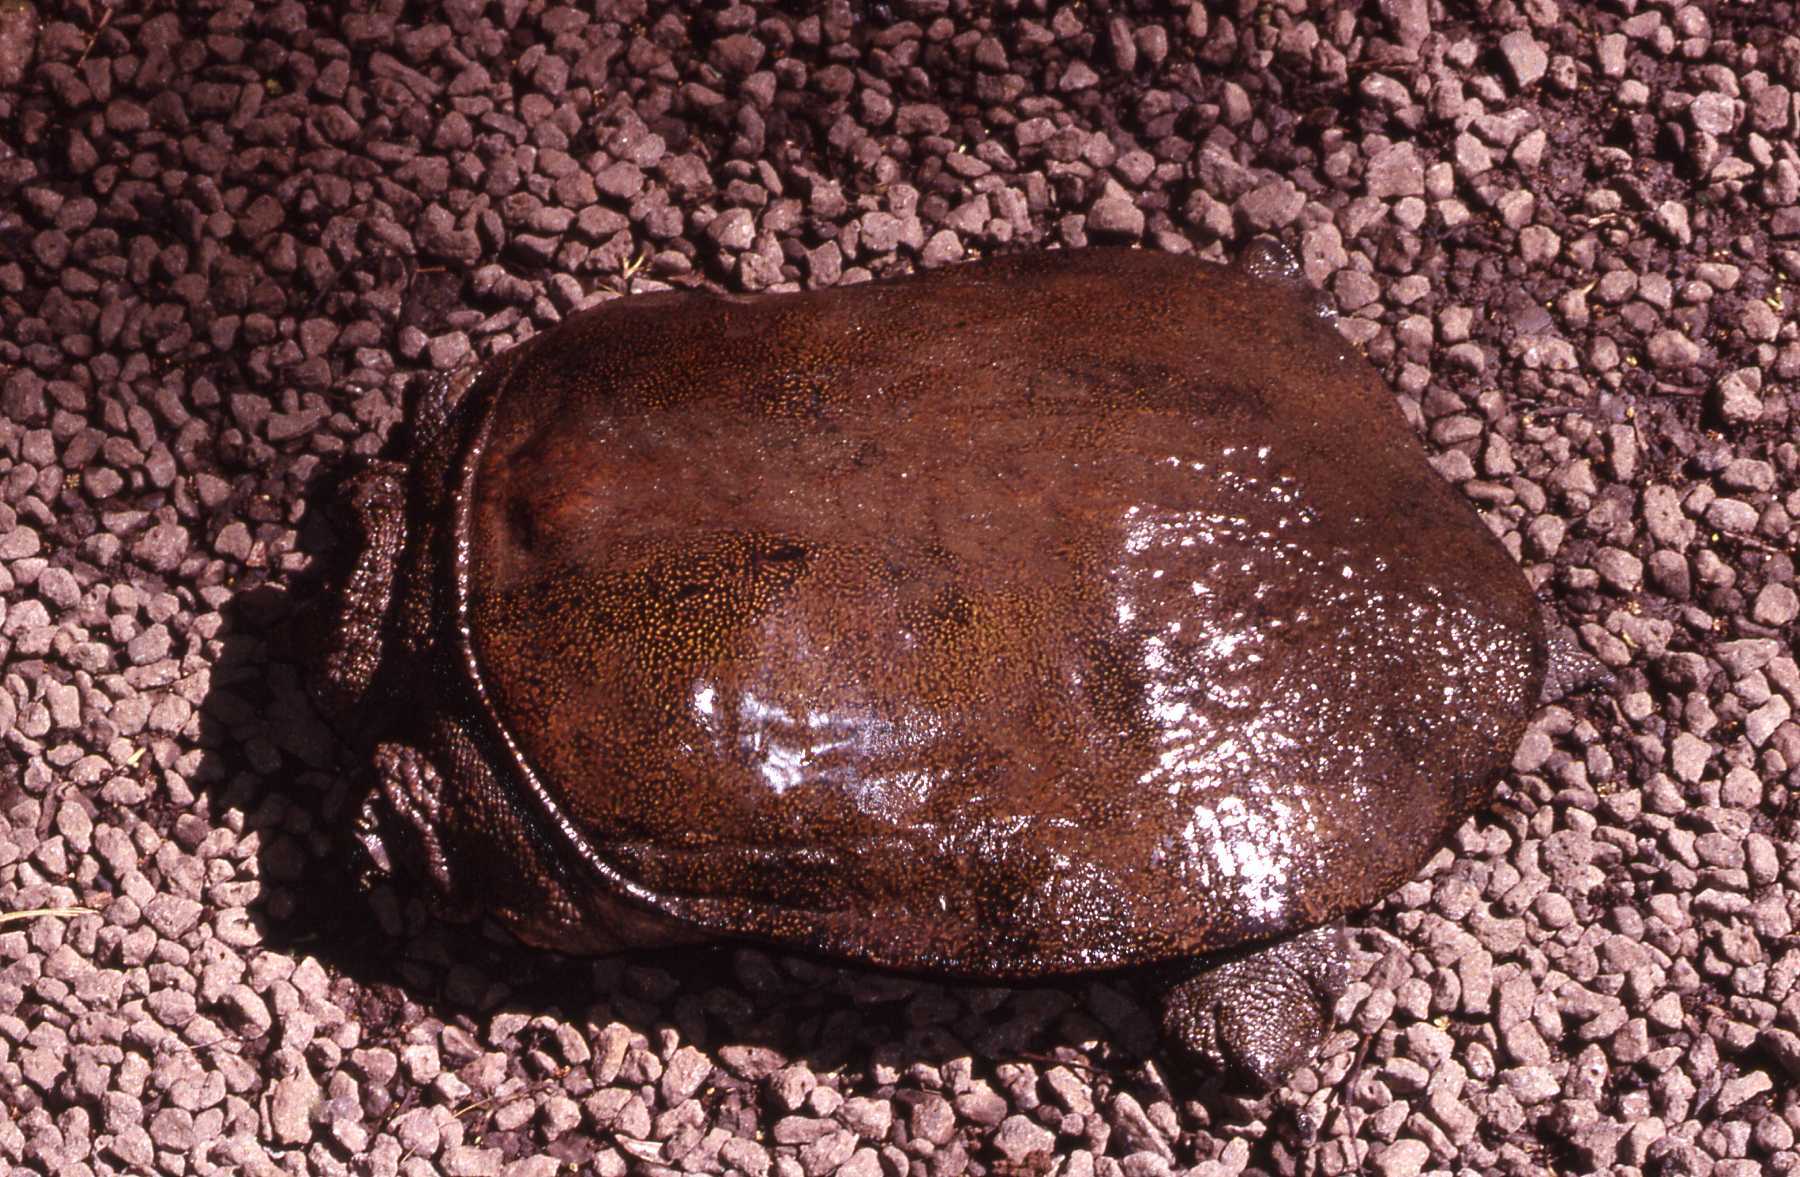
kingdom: Animalia
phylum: Chordata
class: Testudines
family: Trionychidae
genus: Palea
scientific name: Palea steindachneri
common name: Wattle-necked softshell turtle
